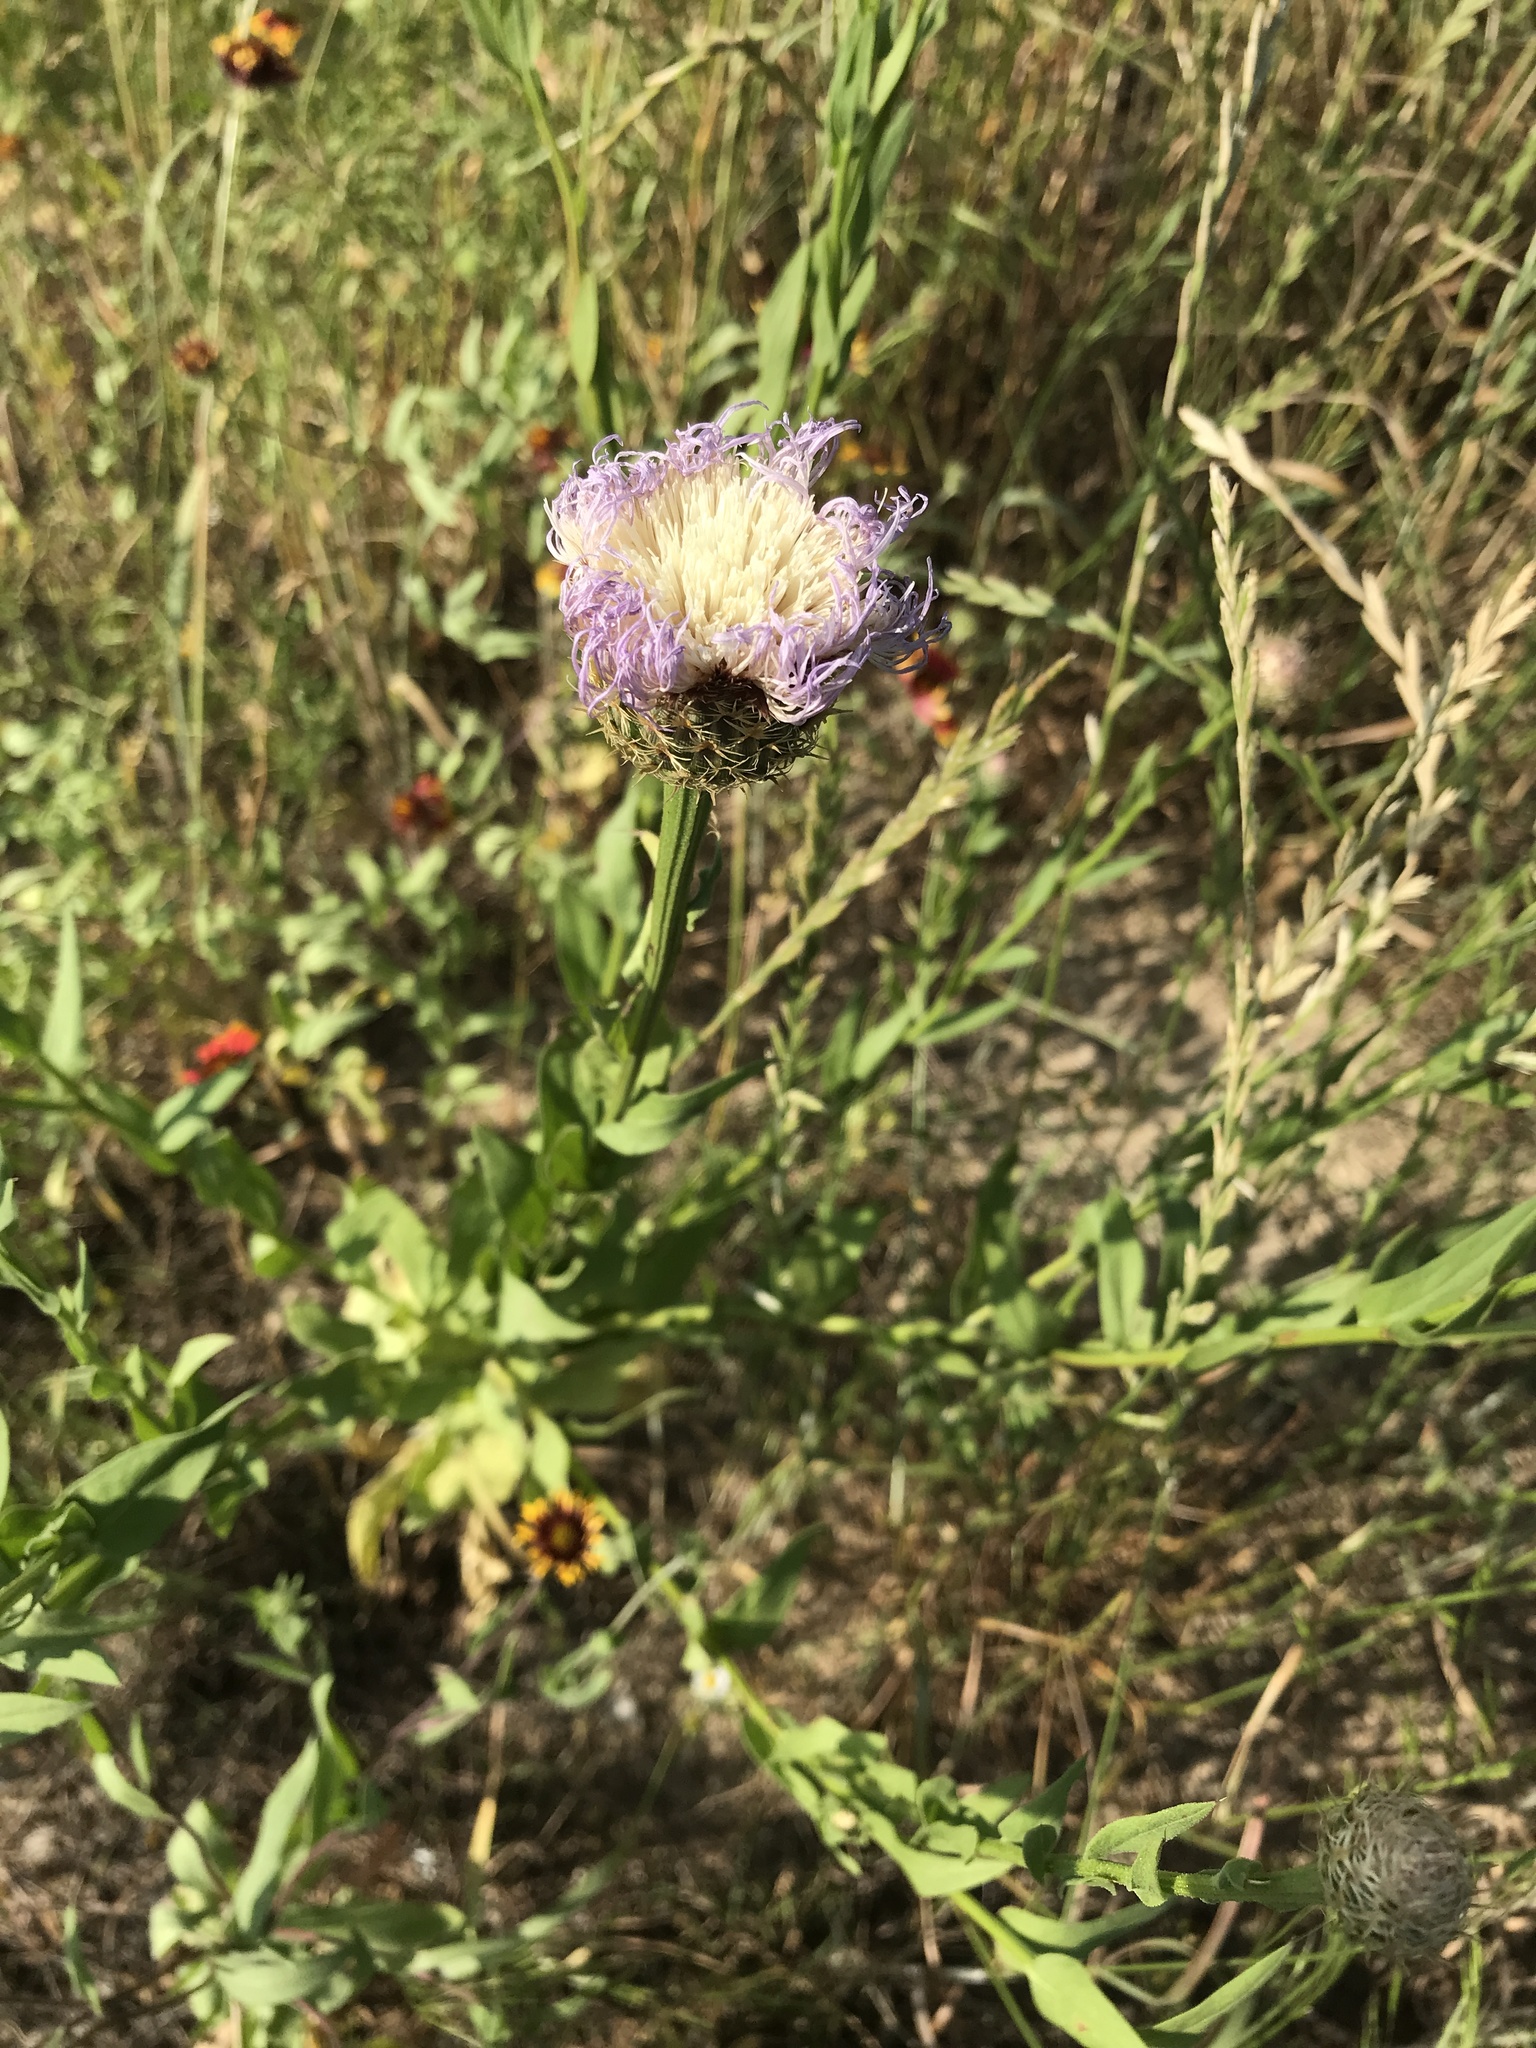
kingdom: Plantae
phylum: Tracheophyta
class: Magnoliopsida
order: Asterales
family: Asteraceae
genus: Plectocephalus
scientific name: Plectocephalus americanus
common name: American basket-flower
